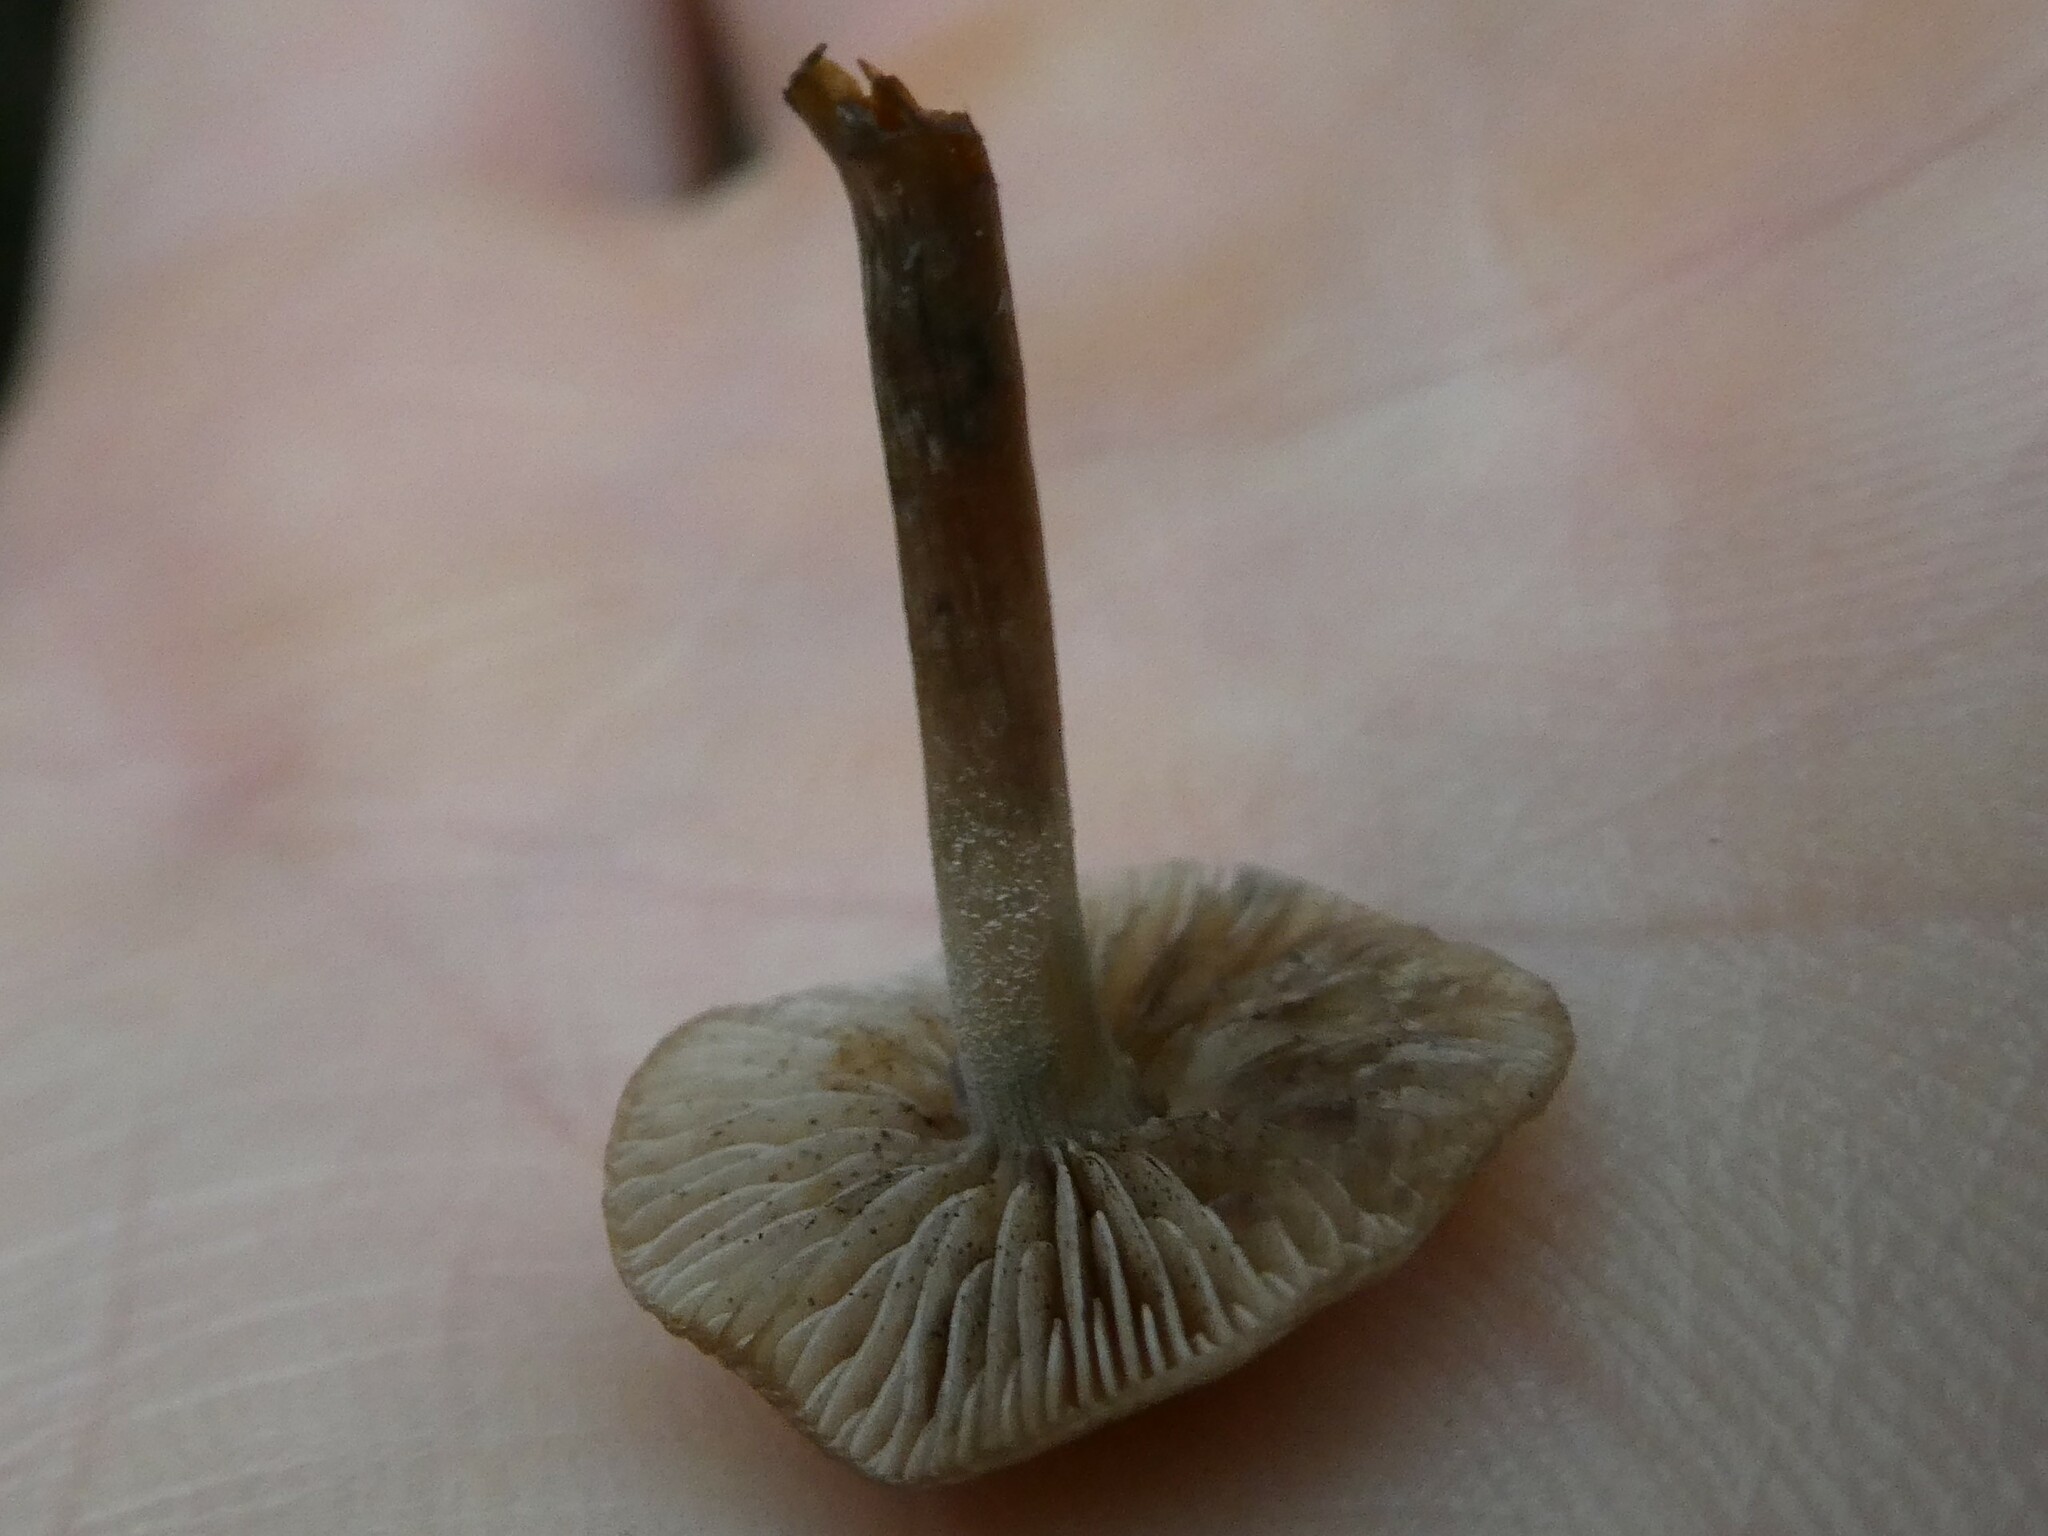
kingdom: Fungi
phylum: Basidiomycota
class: Agaricomycetes
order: Agaricales
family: Hymenogastraceae
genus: Psilocybe
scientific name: Psilocybe caerulipes
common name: Blue-foot
